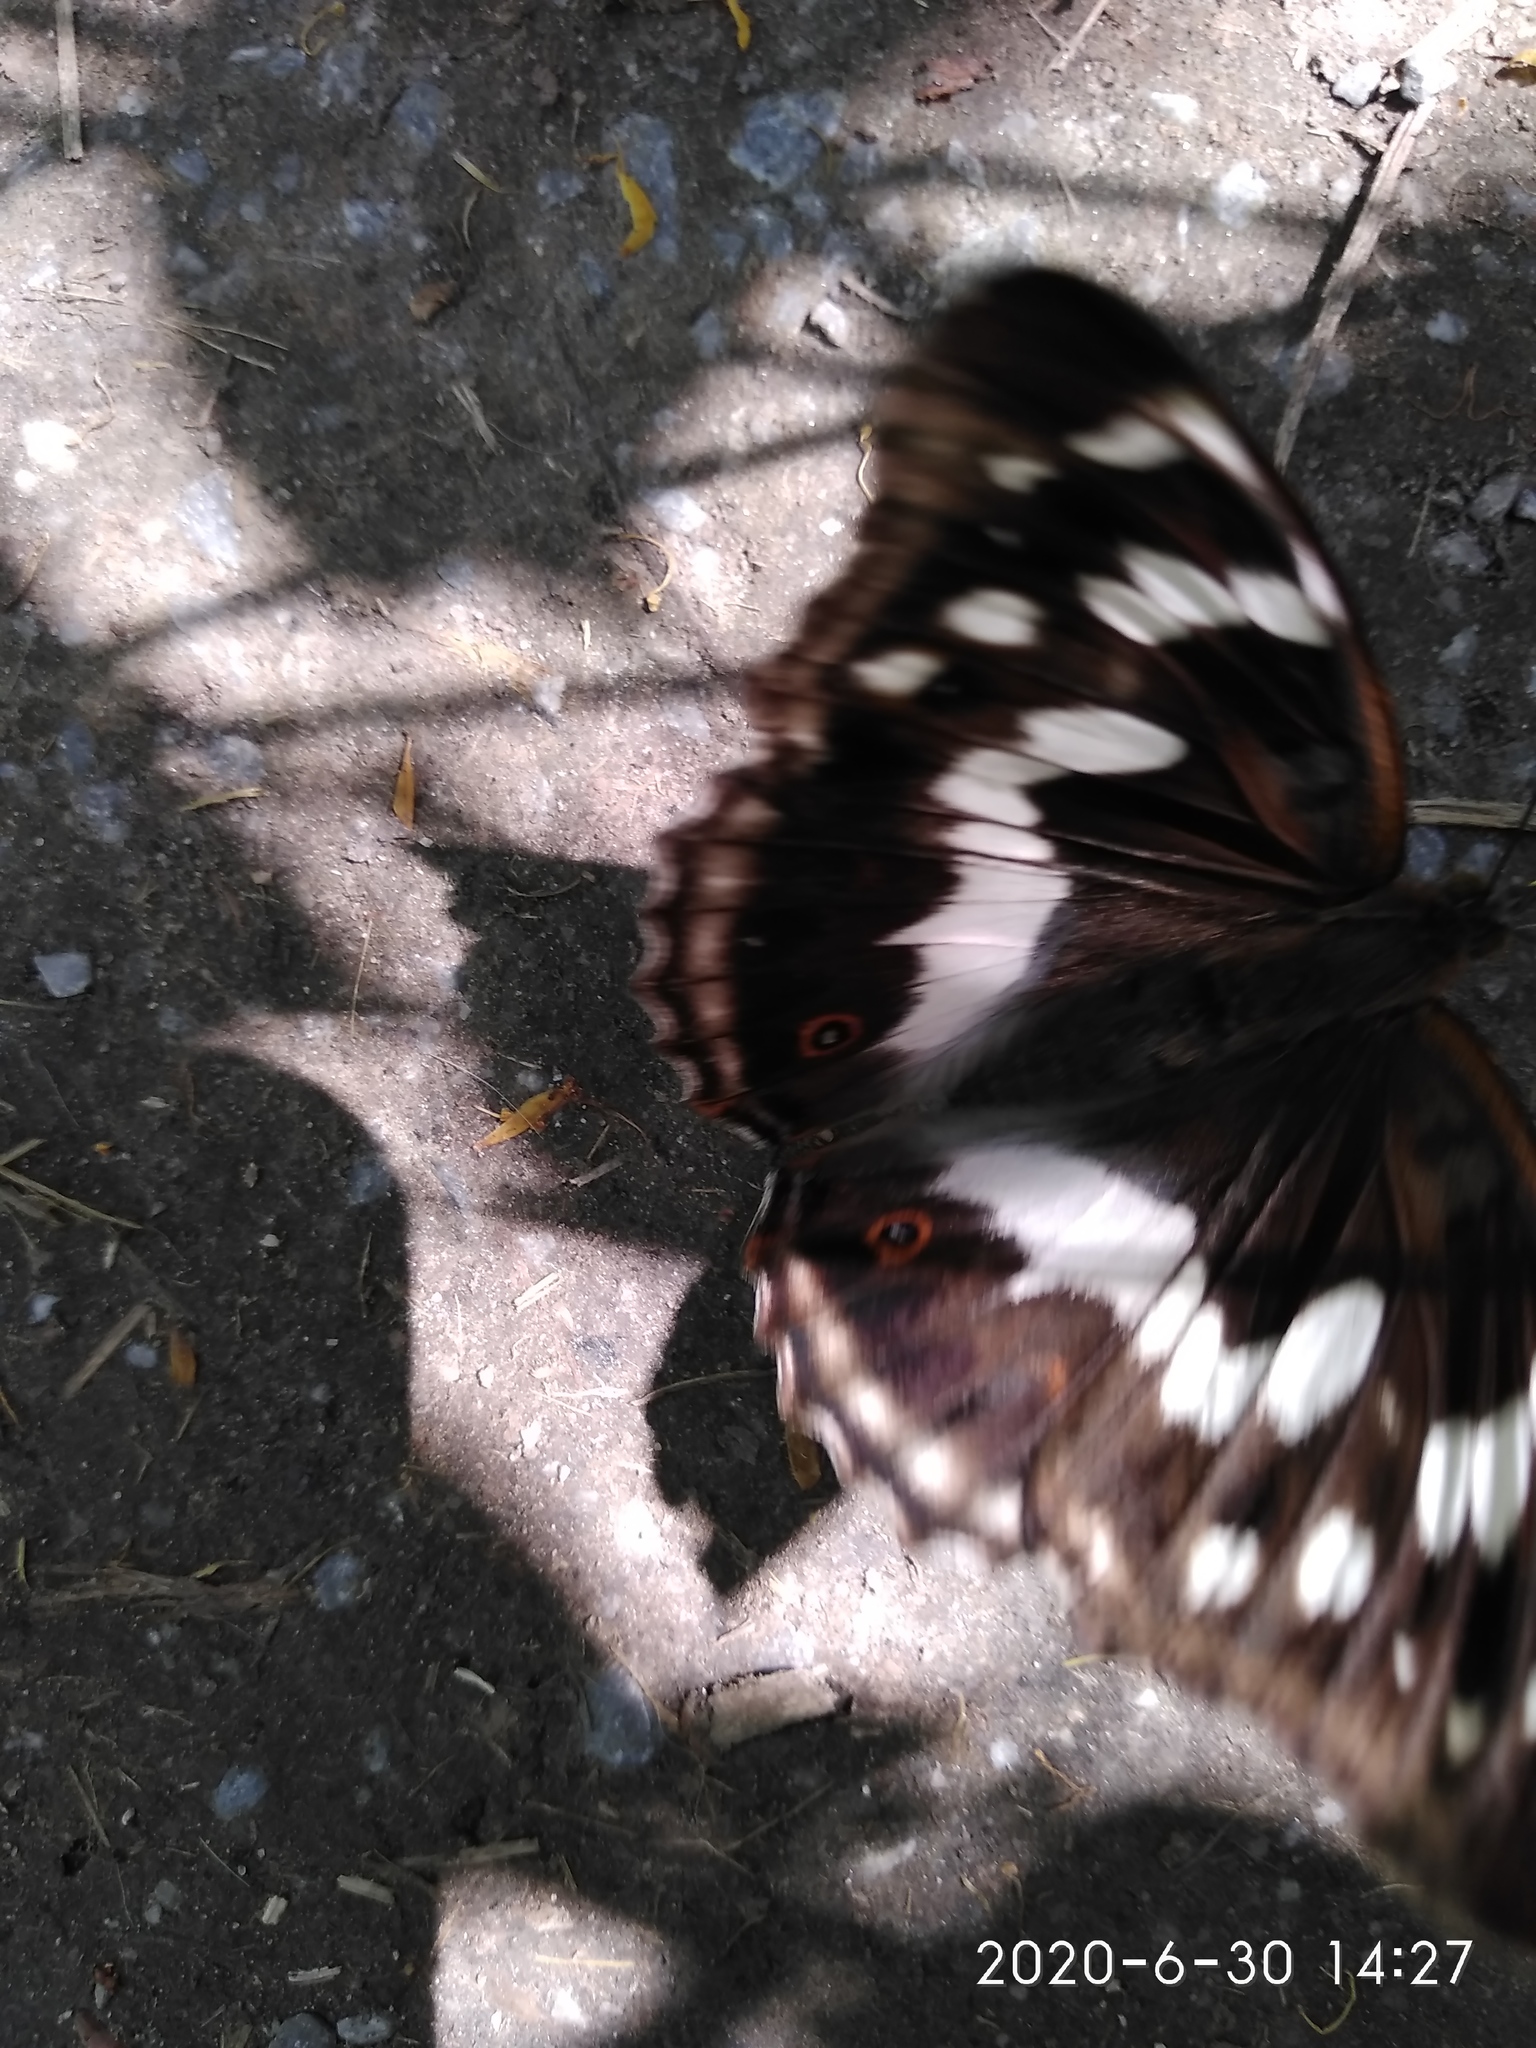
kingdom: Animalia
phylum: Arthropoda
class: Insecta
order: Lepidoptera
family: Nymphalidae
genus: Apatura
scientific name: Apatura iris
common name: Purple emperor
